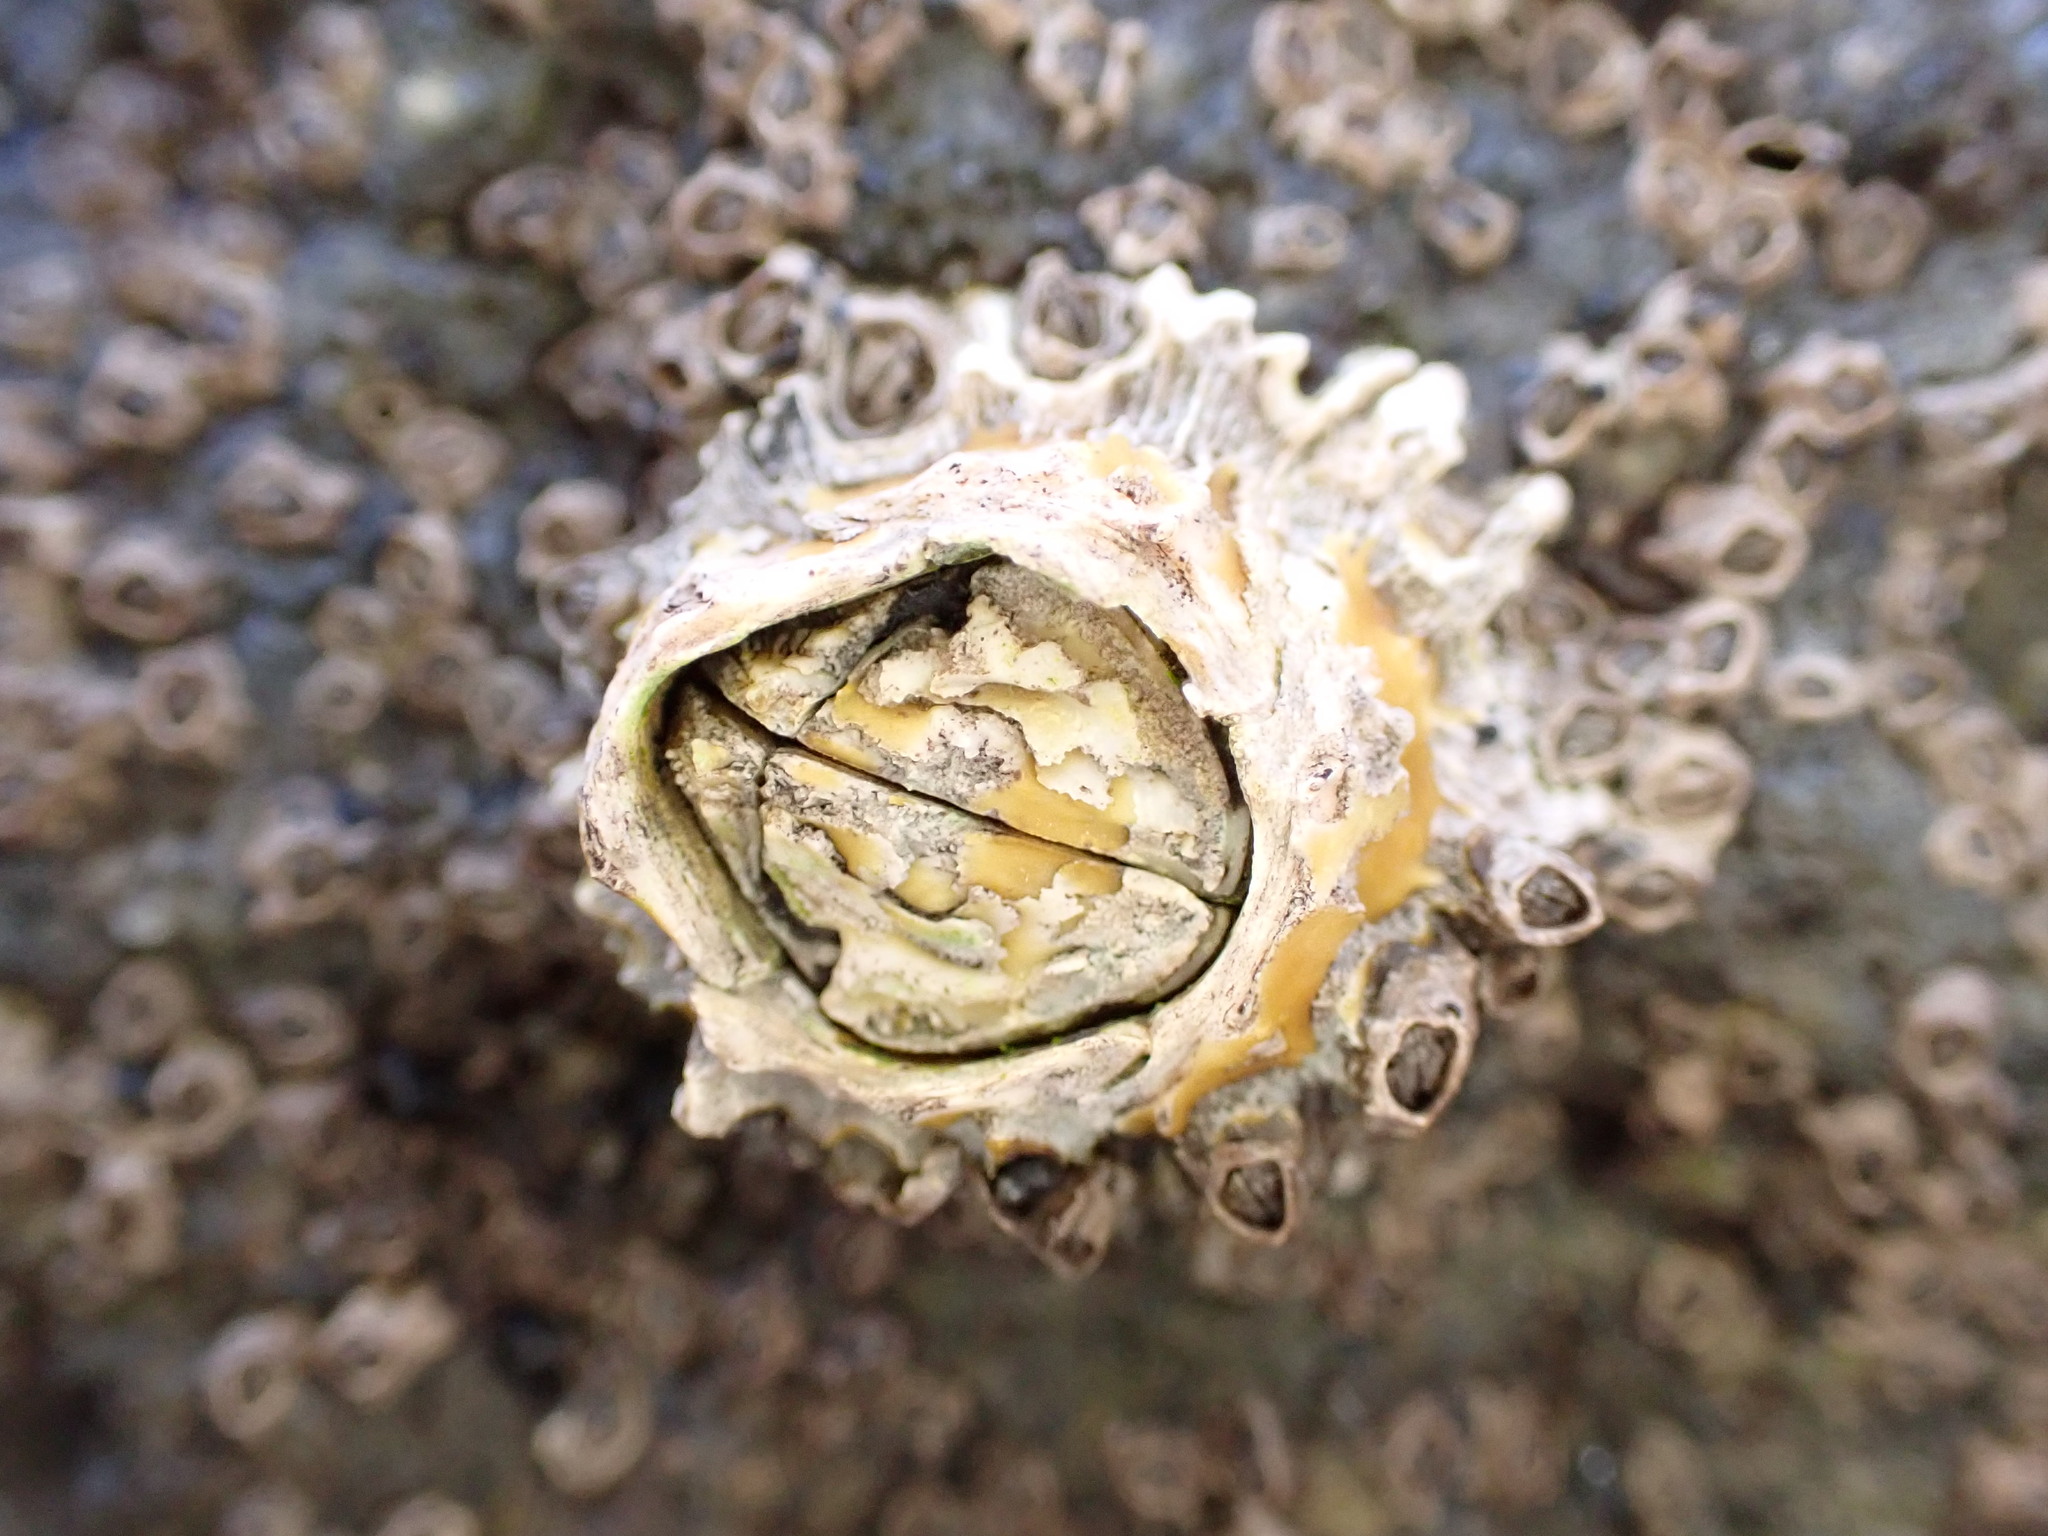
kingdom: Animalia
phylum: Arthropoda
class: Maxillopoda
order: Sessilia
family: Tetraclitidae
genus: Epopella
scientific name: Epopella plicata
